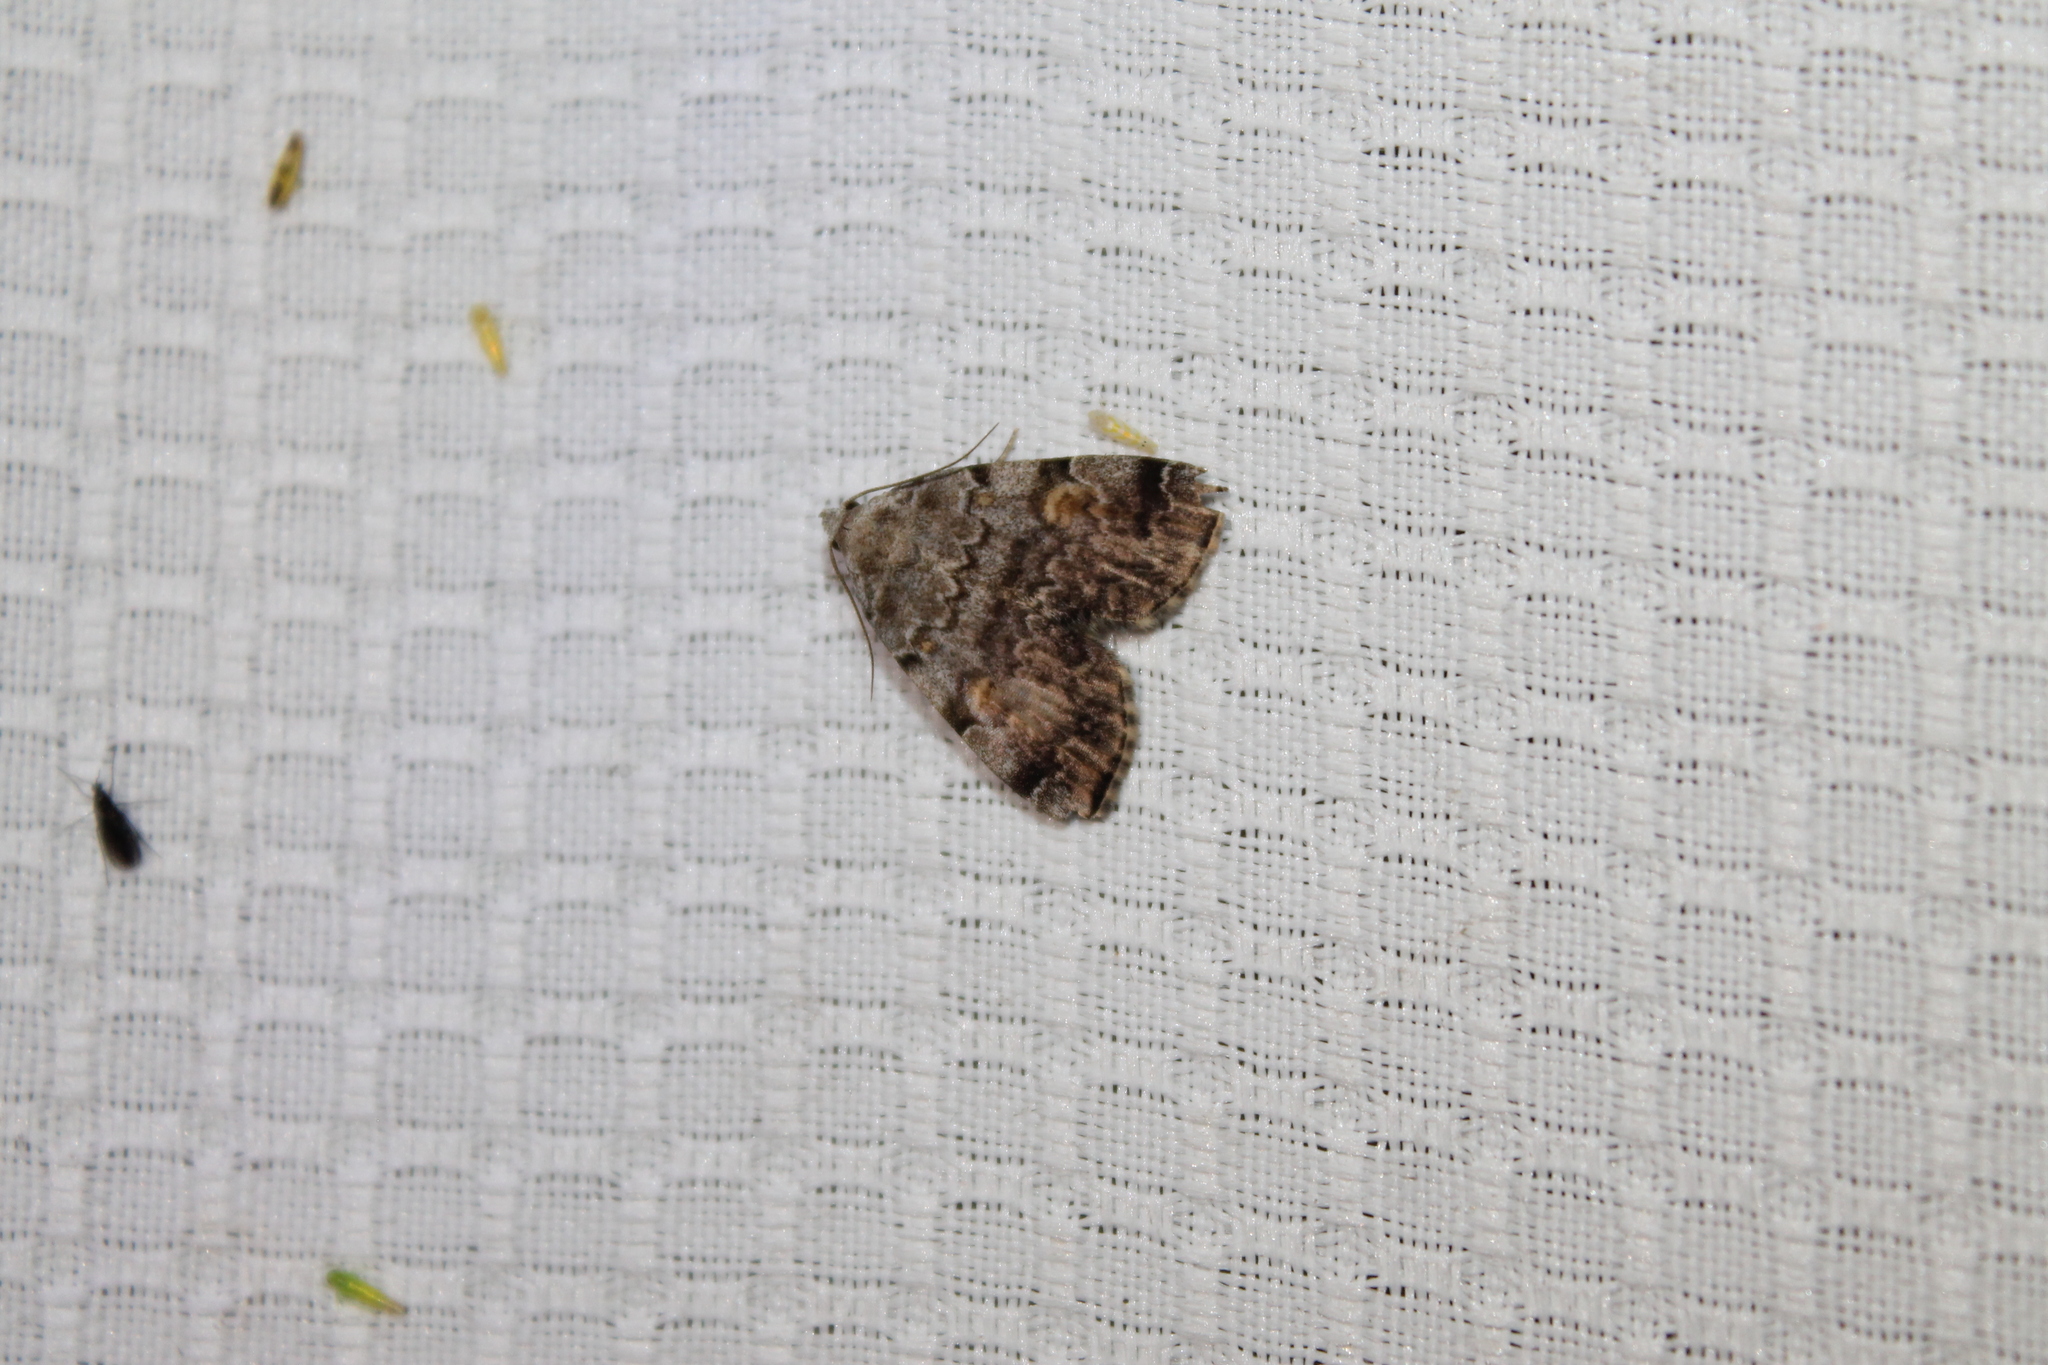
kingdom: Animalia
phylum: Arthropoda
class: Insecta
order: Lepidoptera
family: Erebidae
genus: Idia
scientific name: Idia americalis
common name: American idia moth
